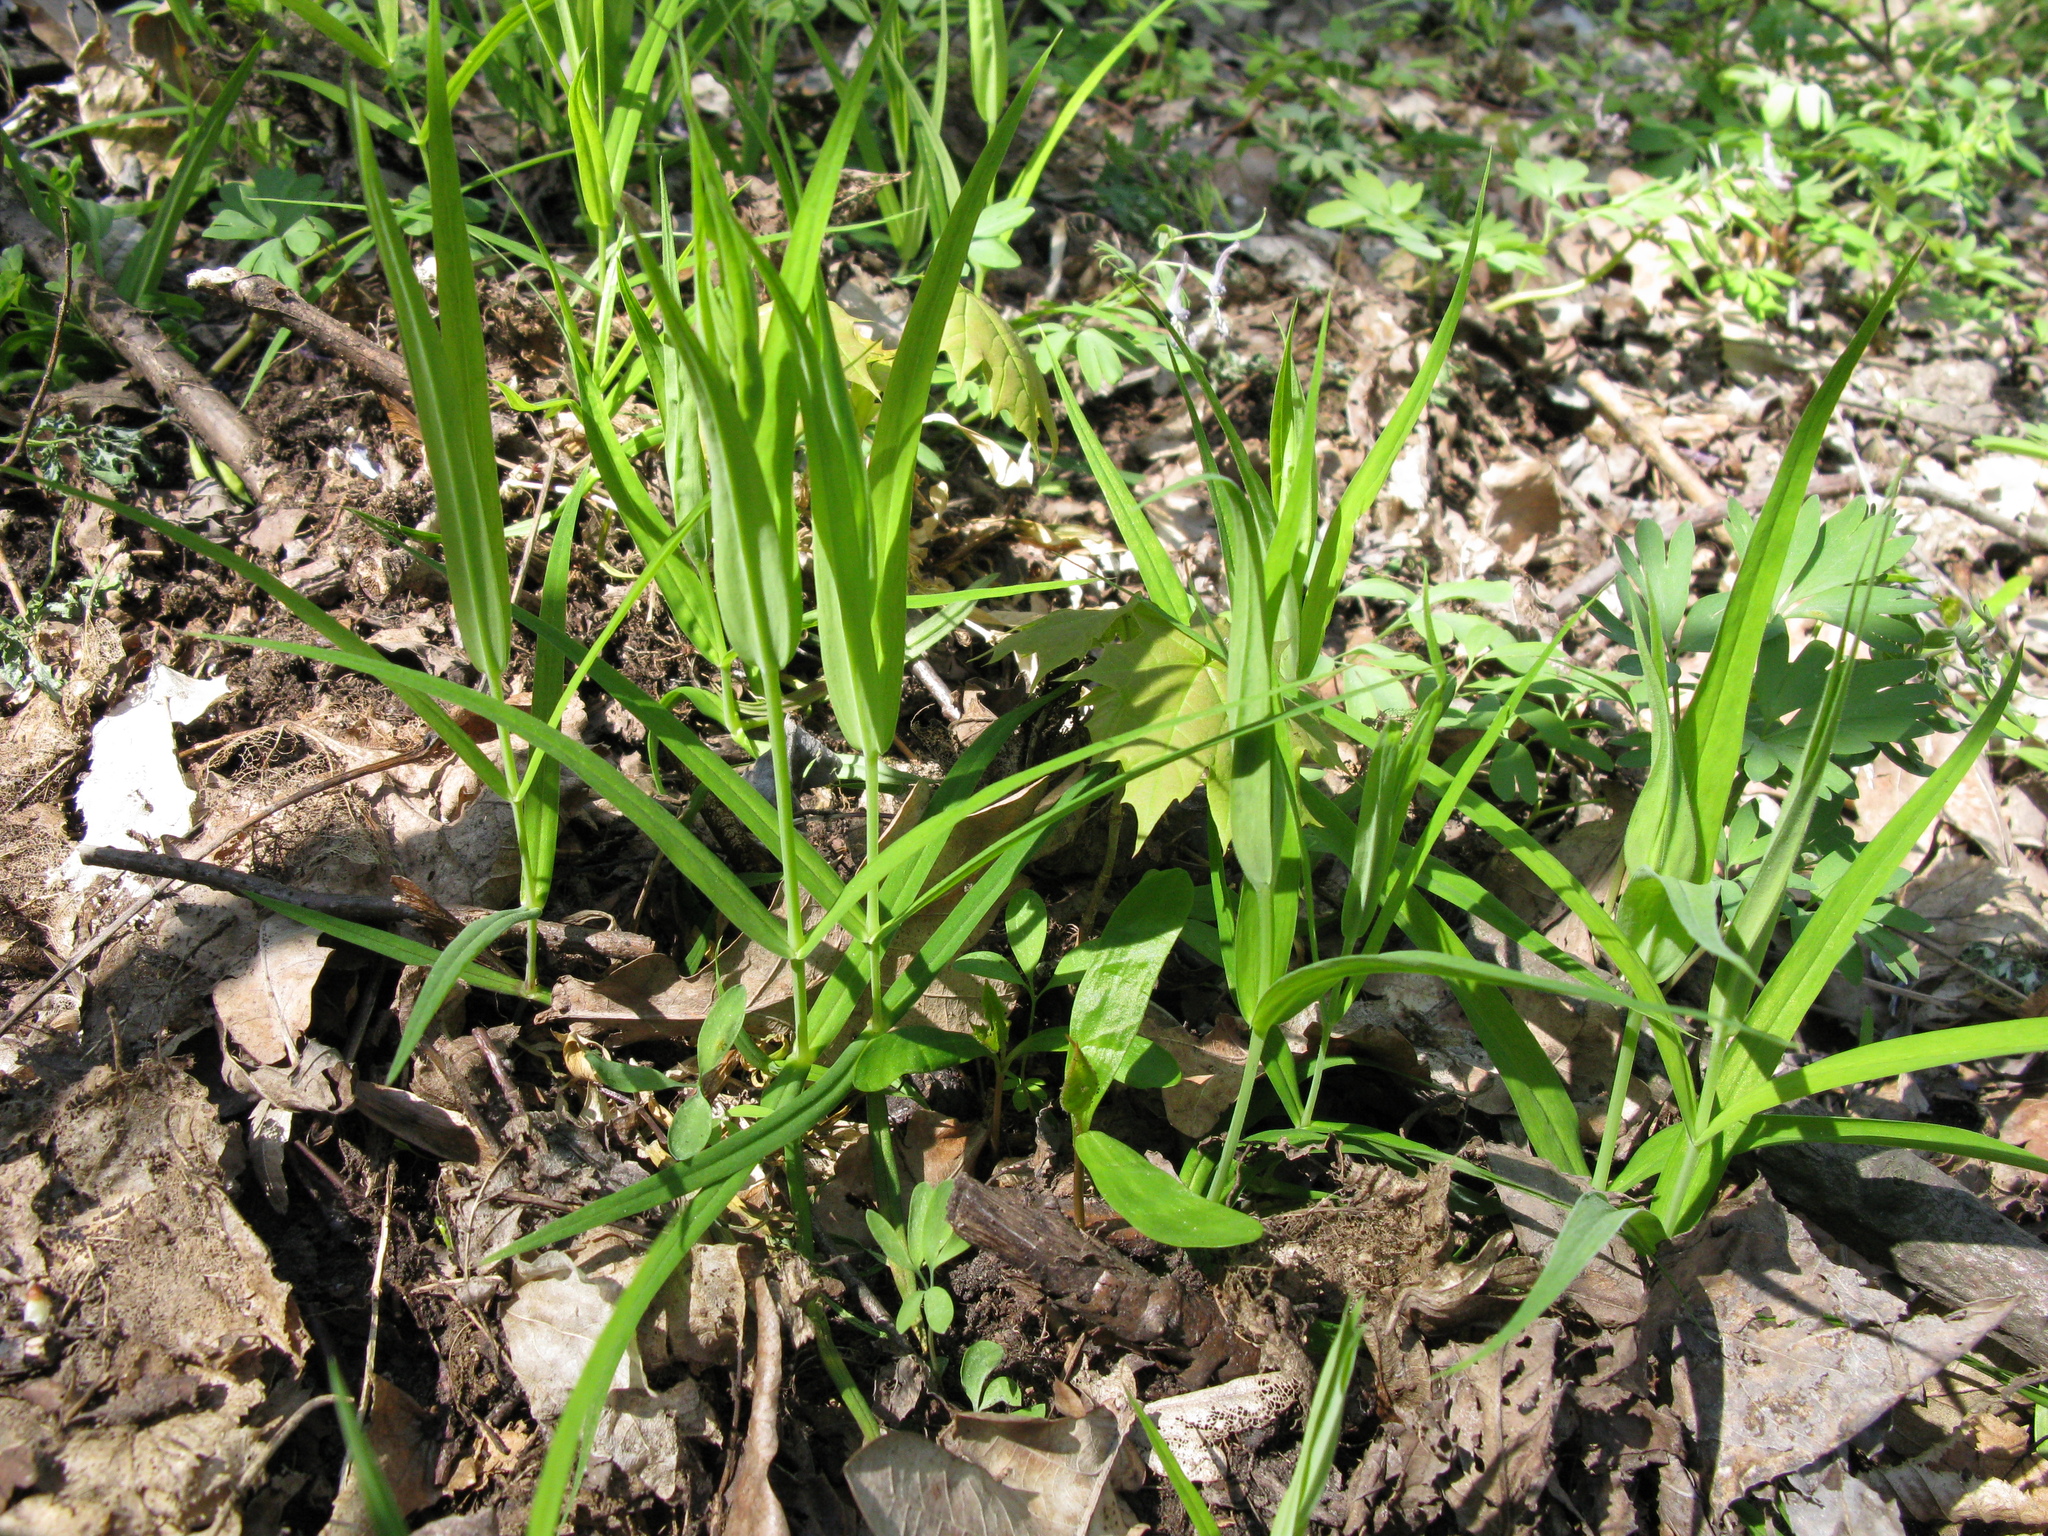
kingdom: Plantae
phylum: Tracheophyta
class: Magnoliopsida
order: Caryophyllales
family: Caryophyllaceae
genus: Rabelera
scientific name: Rabelera holostea
